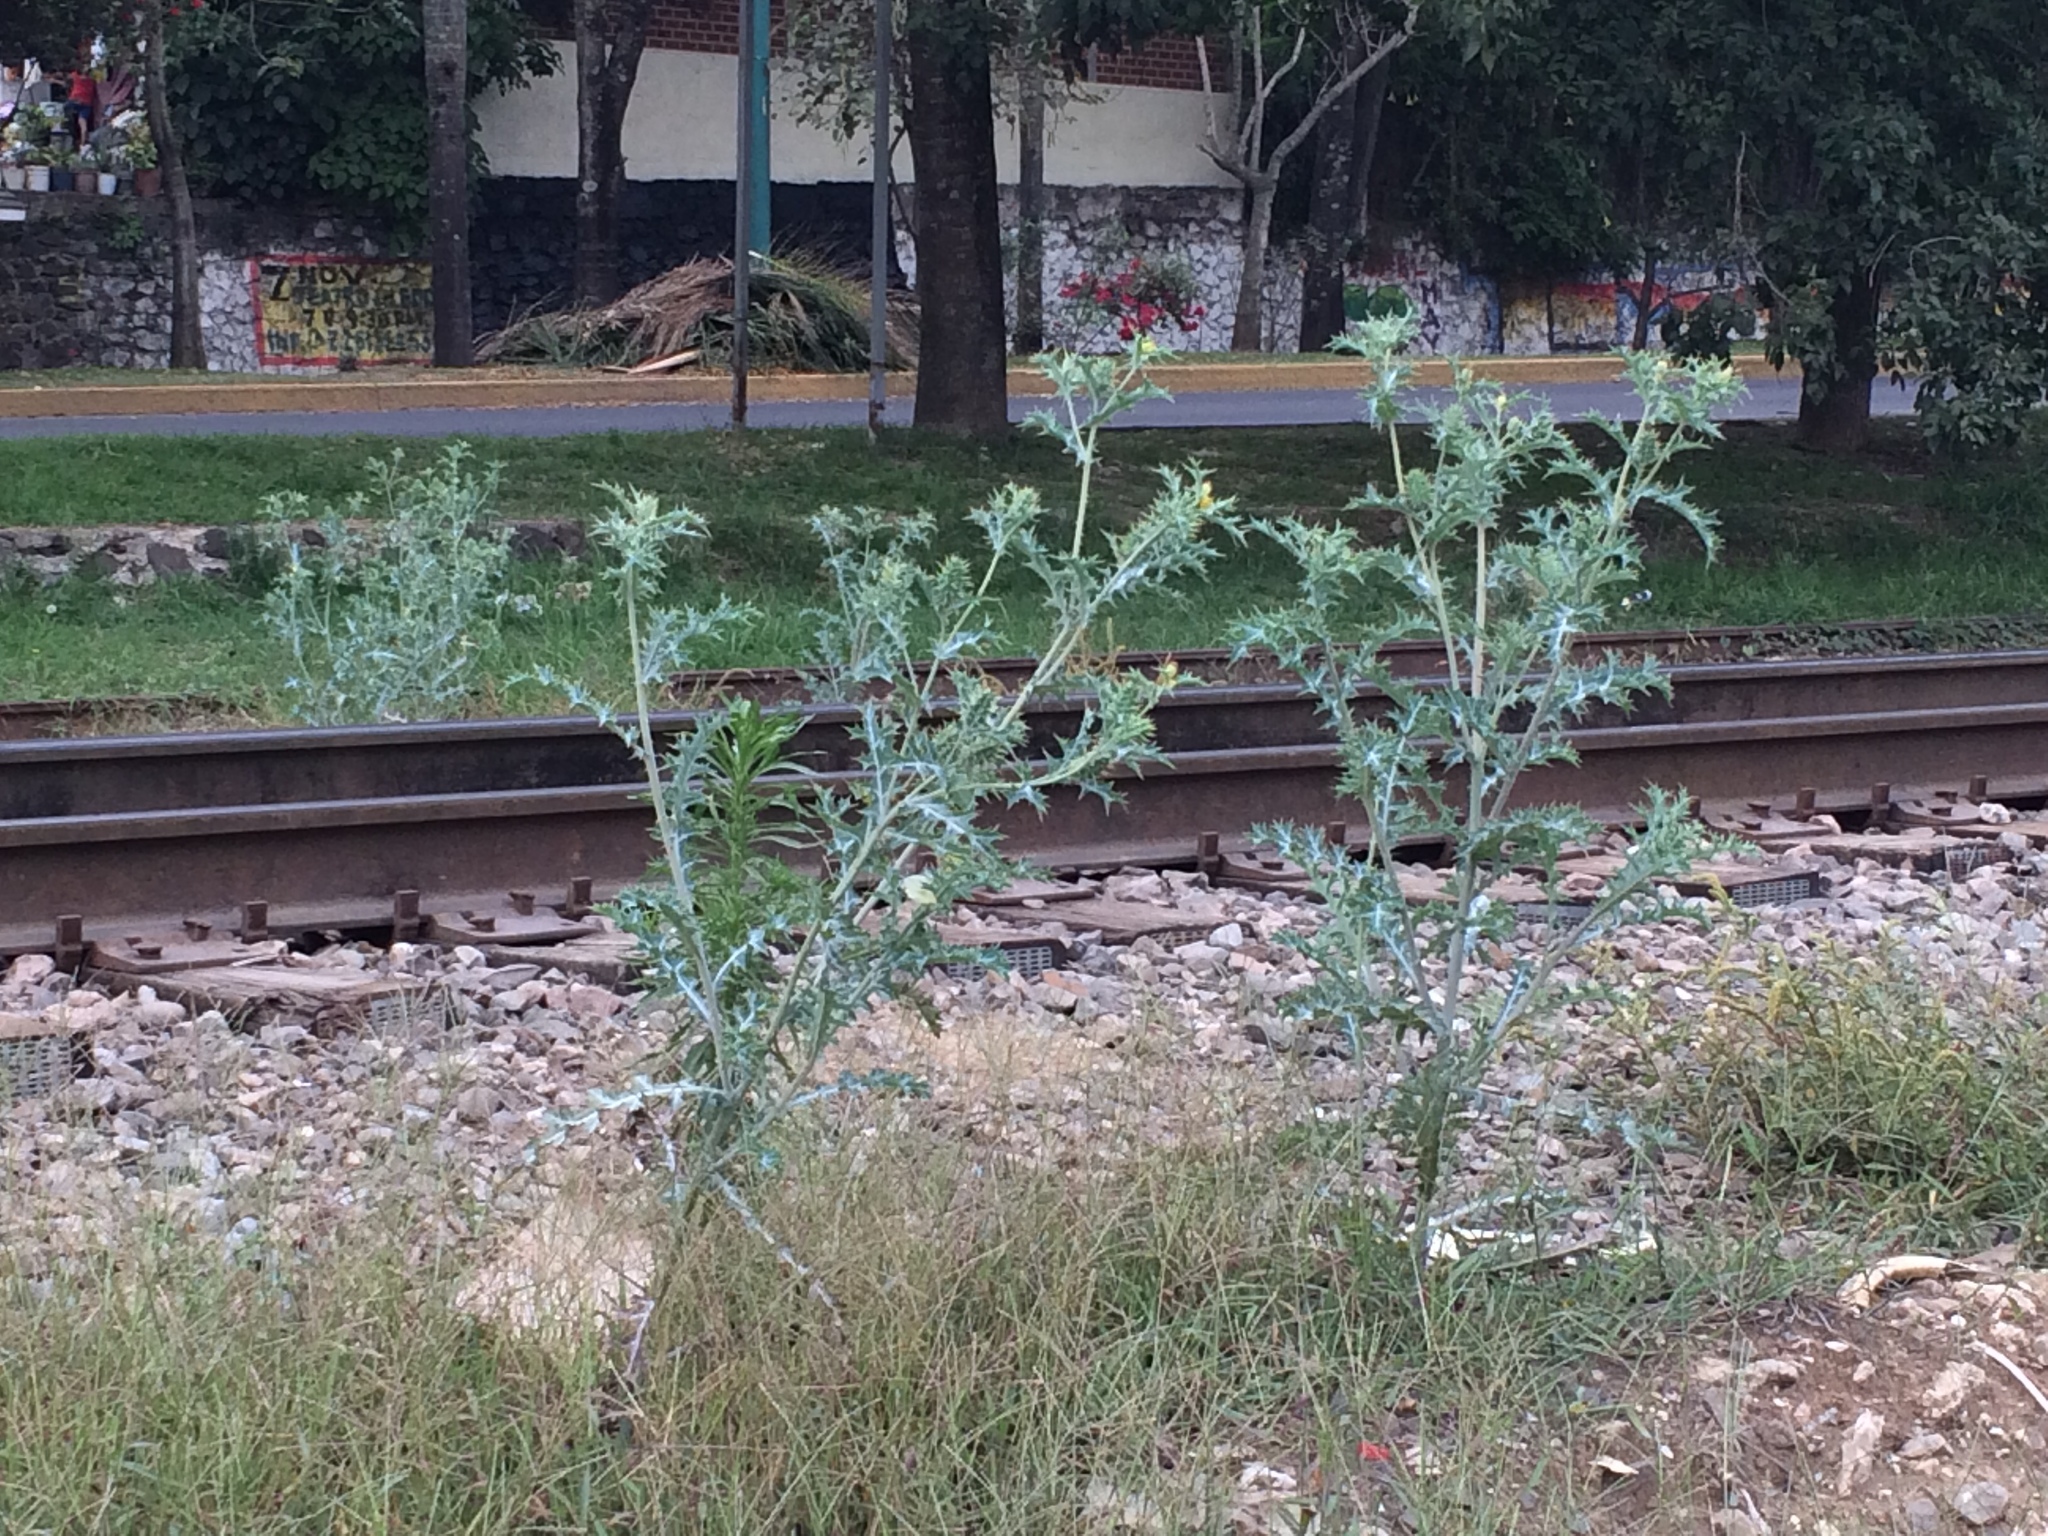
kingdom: Plantae
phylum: Tracheophyta
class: Magnoliopsida
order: Ranunculales
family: Papaveraceae
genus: Argemone
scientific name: Argemone ochroleuca
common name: White-flower mexican-poppy
